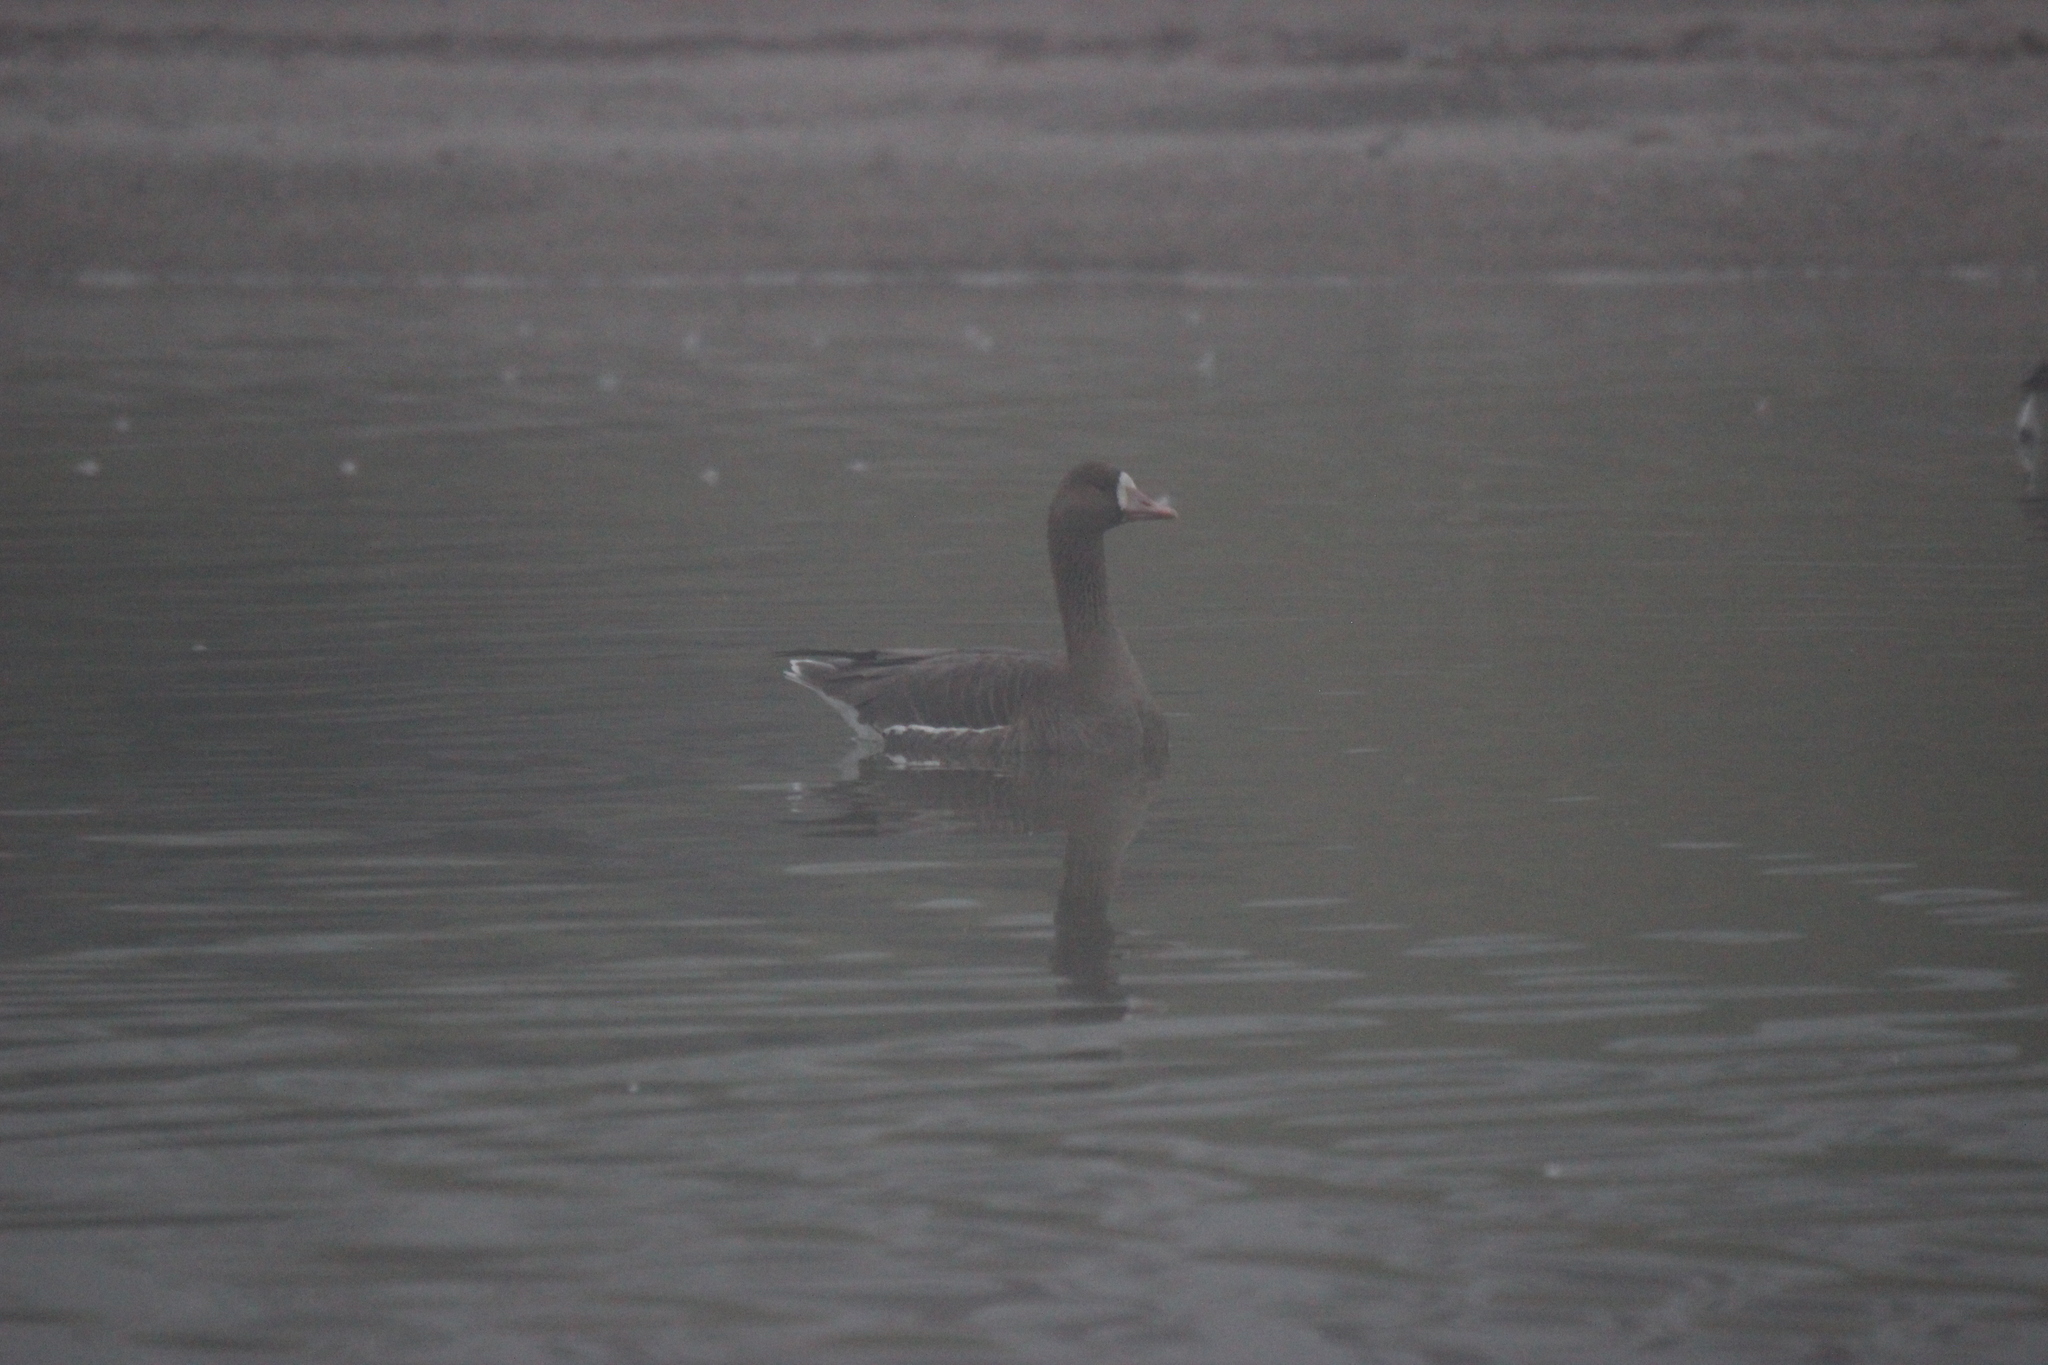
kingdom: Animalia
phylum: Chordata
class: Aves
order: Anseriformes
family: Anatidae
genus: Anser
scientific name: Anser albifrons
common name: Greater white-fronted goose
